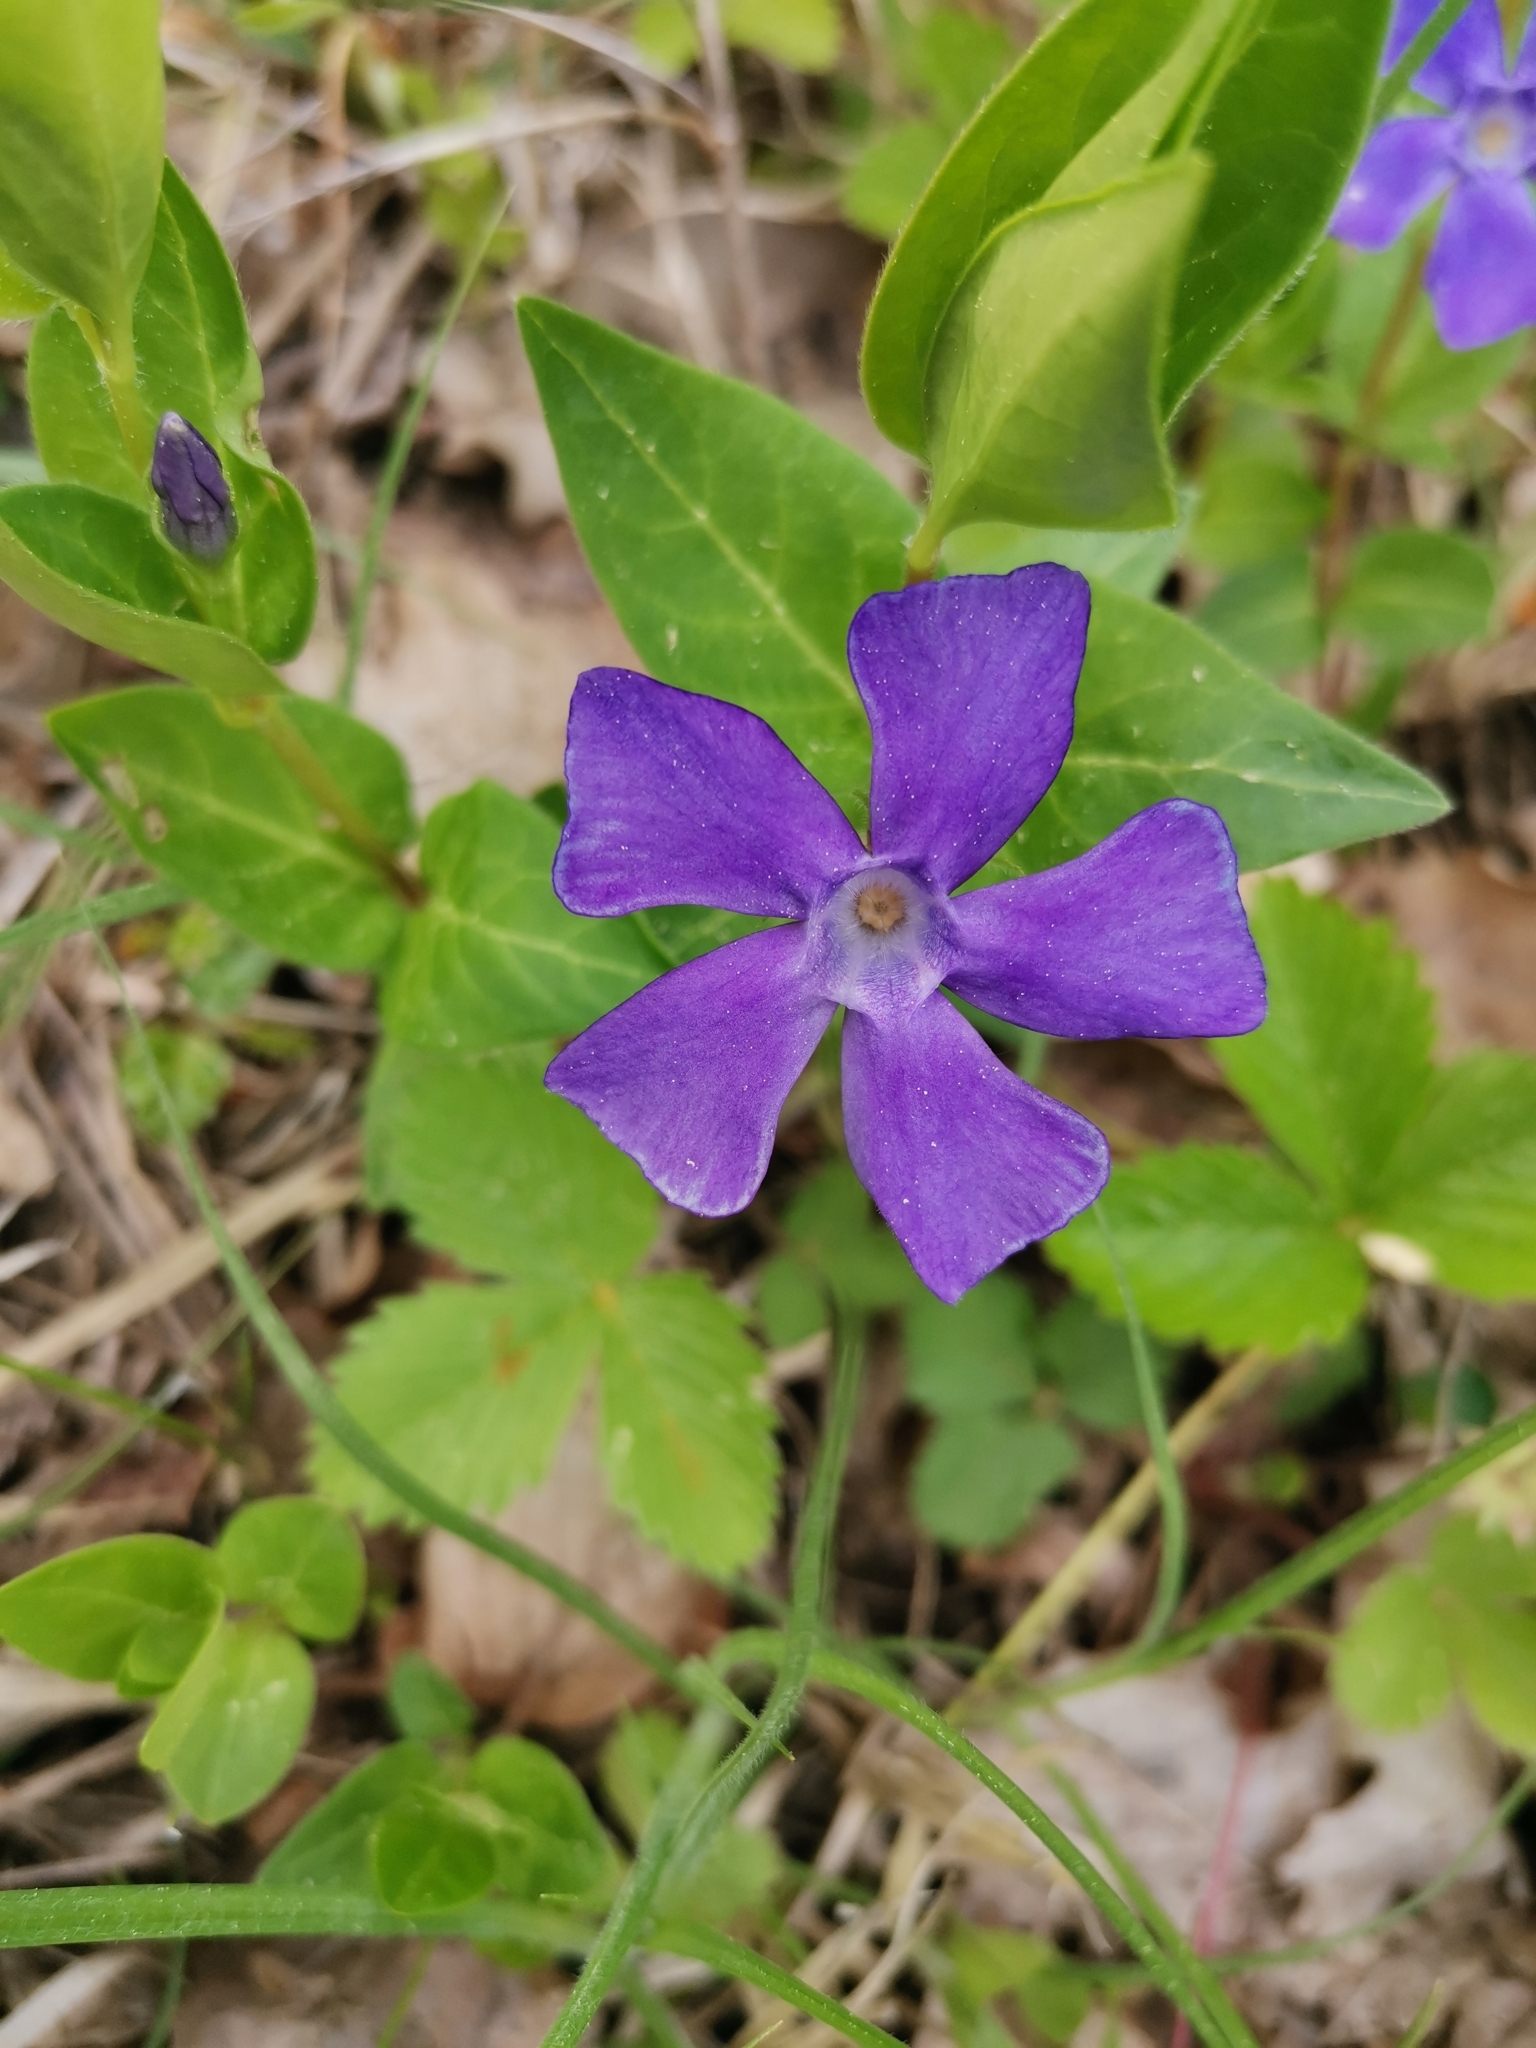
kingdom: Plantae
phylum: Tracheophyta
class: Magnoliopsida
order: Gentianales
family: Apocynaceae
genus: Vinca
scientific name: Vinca major
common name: Greater periwinkle
